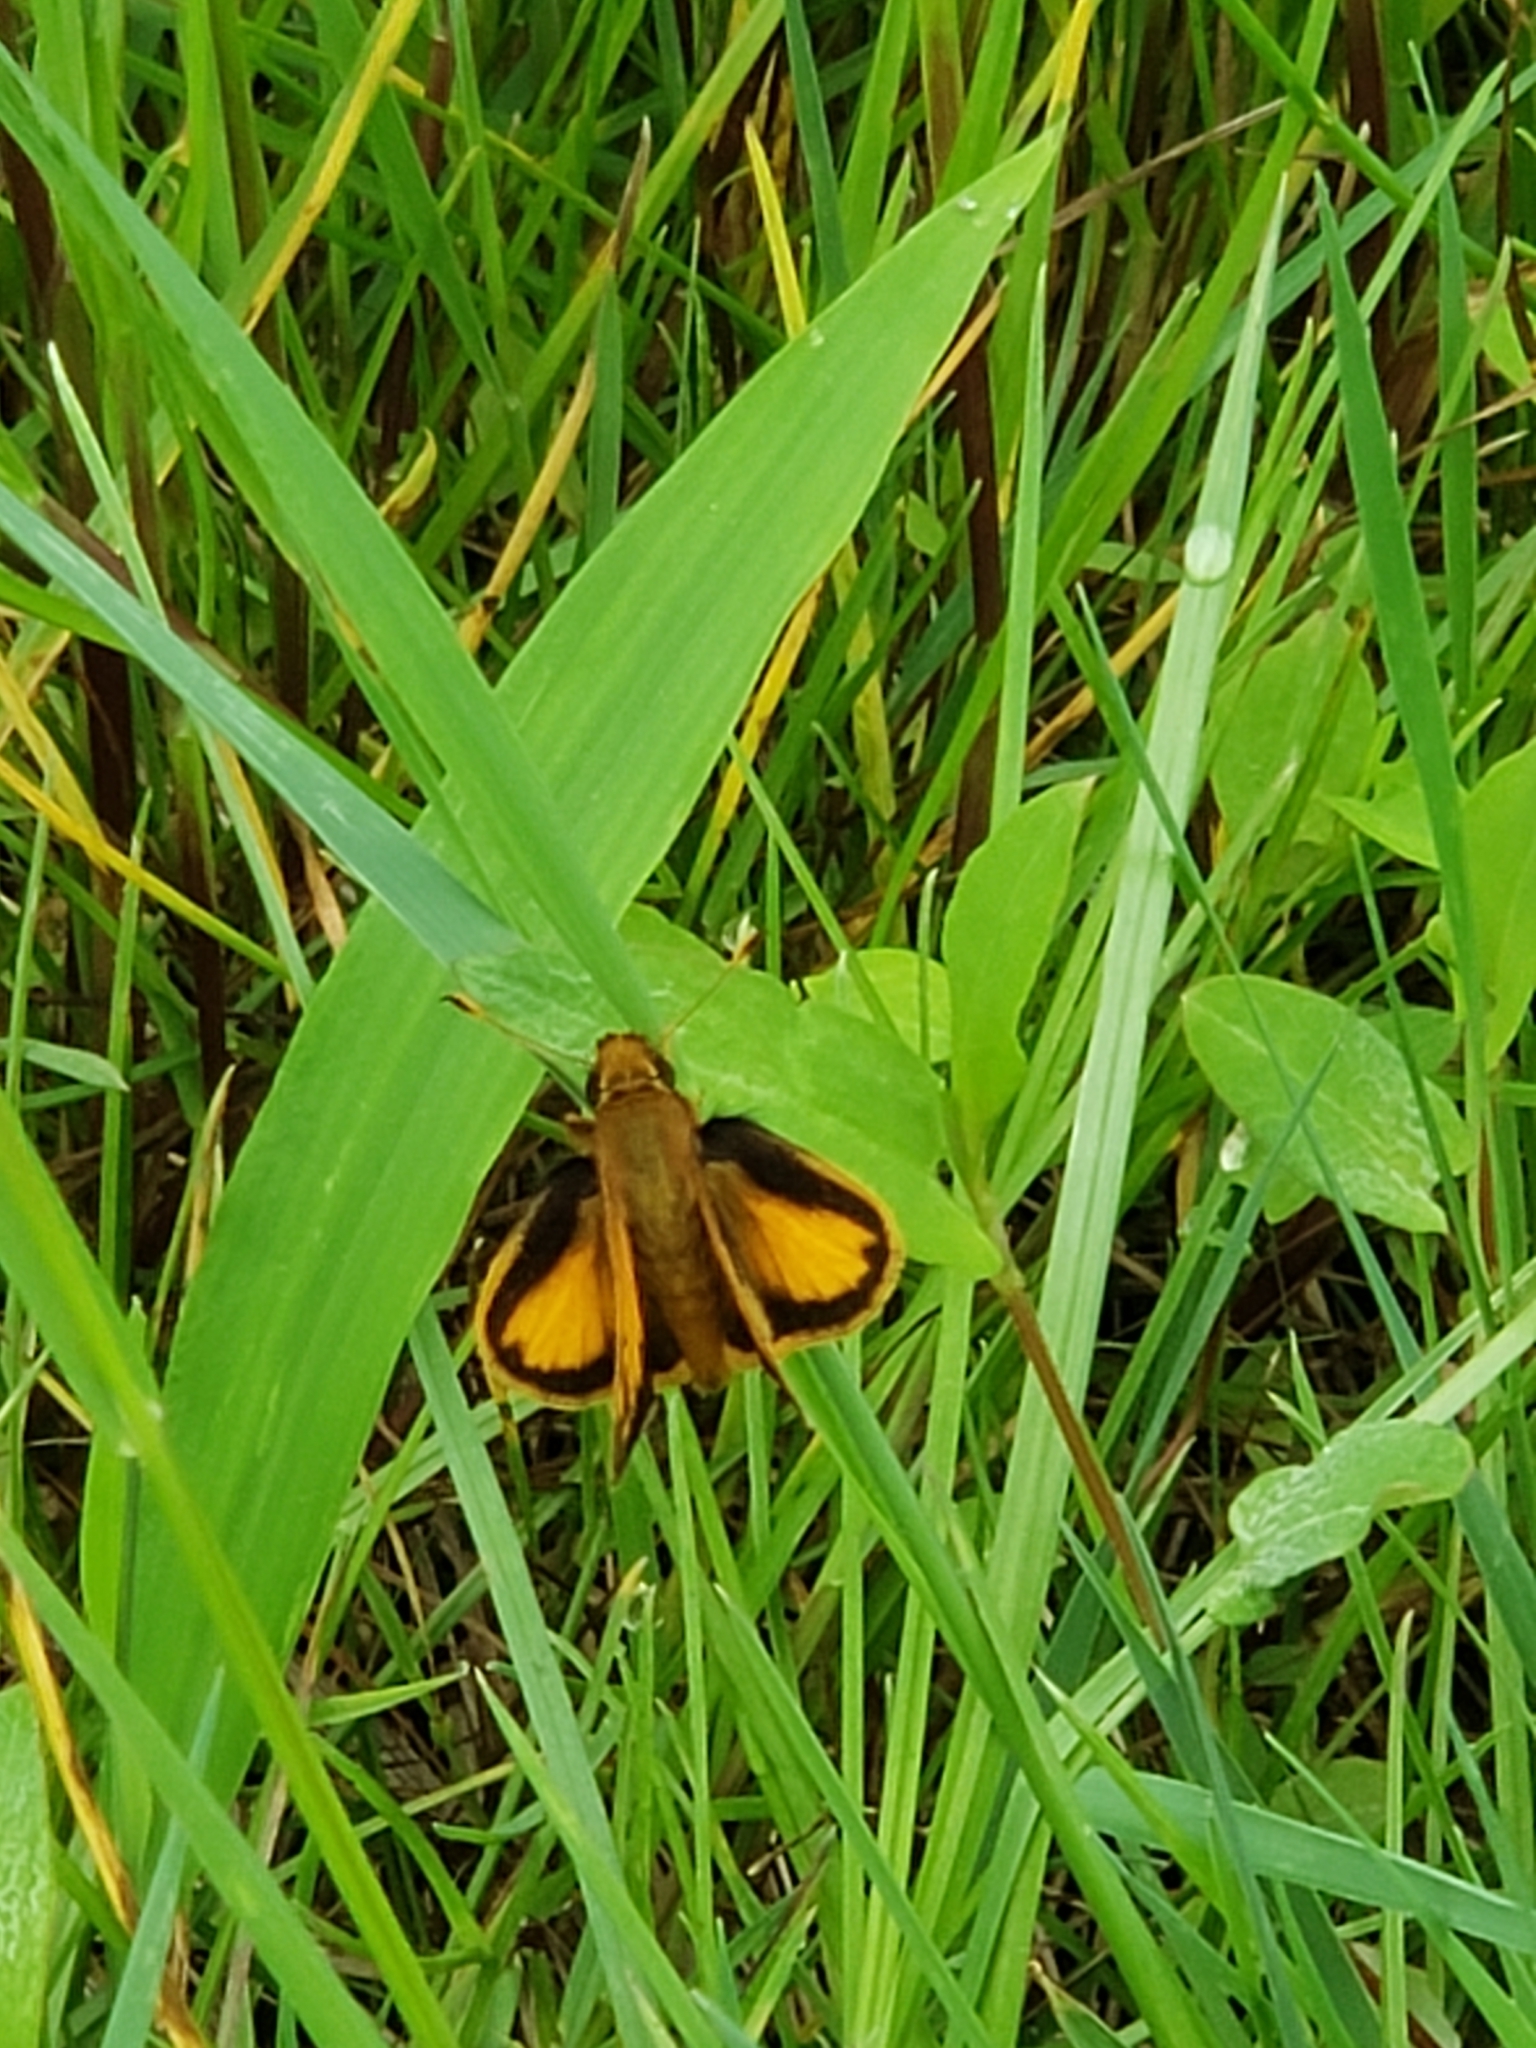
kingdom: Animalia
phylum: Arthropoda
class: Insecta
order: Lepidoptera
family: Hesperiidae
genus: Lon
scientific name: Lon zabulon
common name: Zabulon skipper
